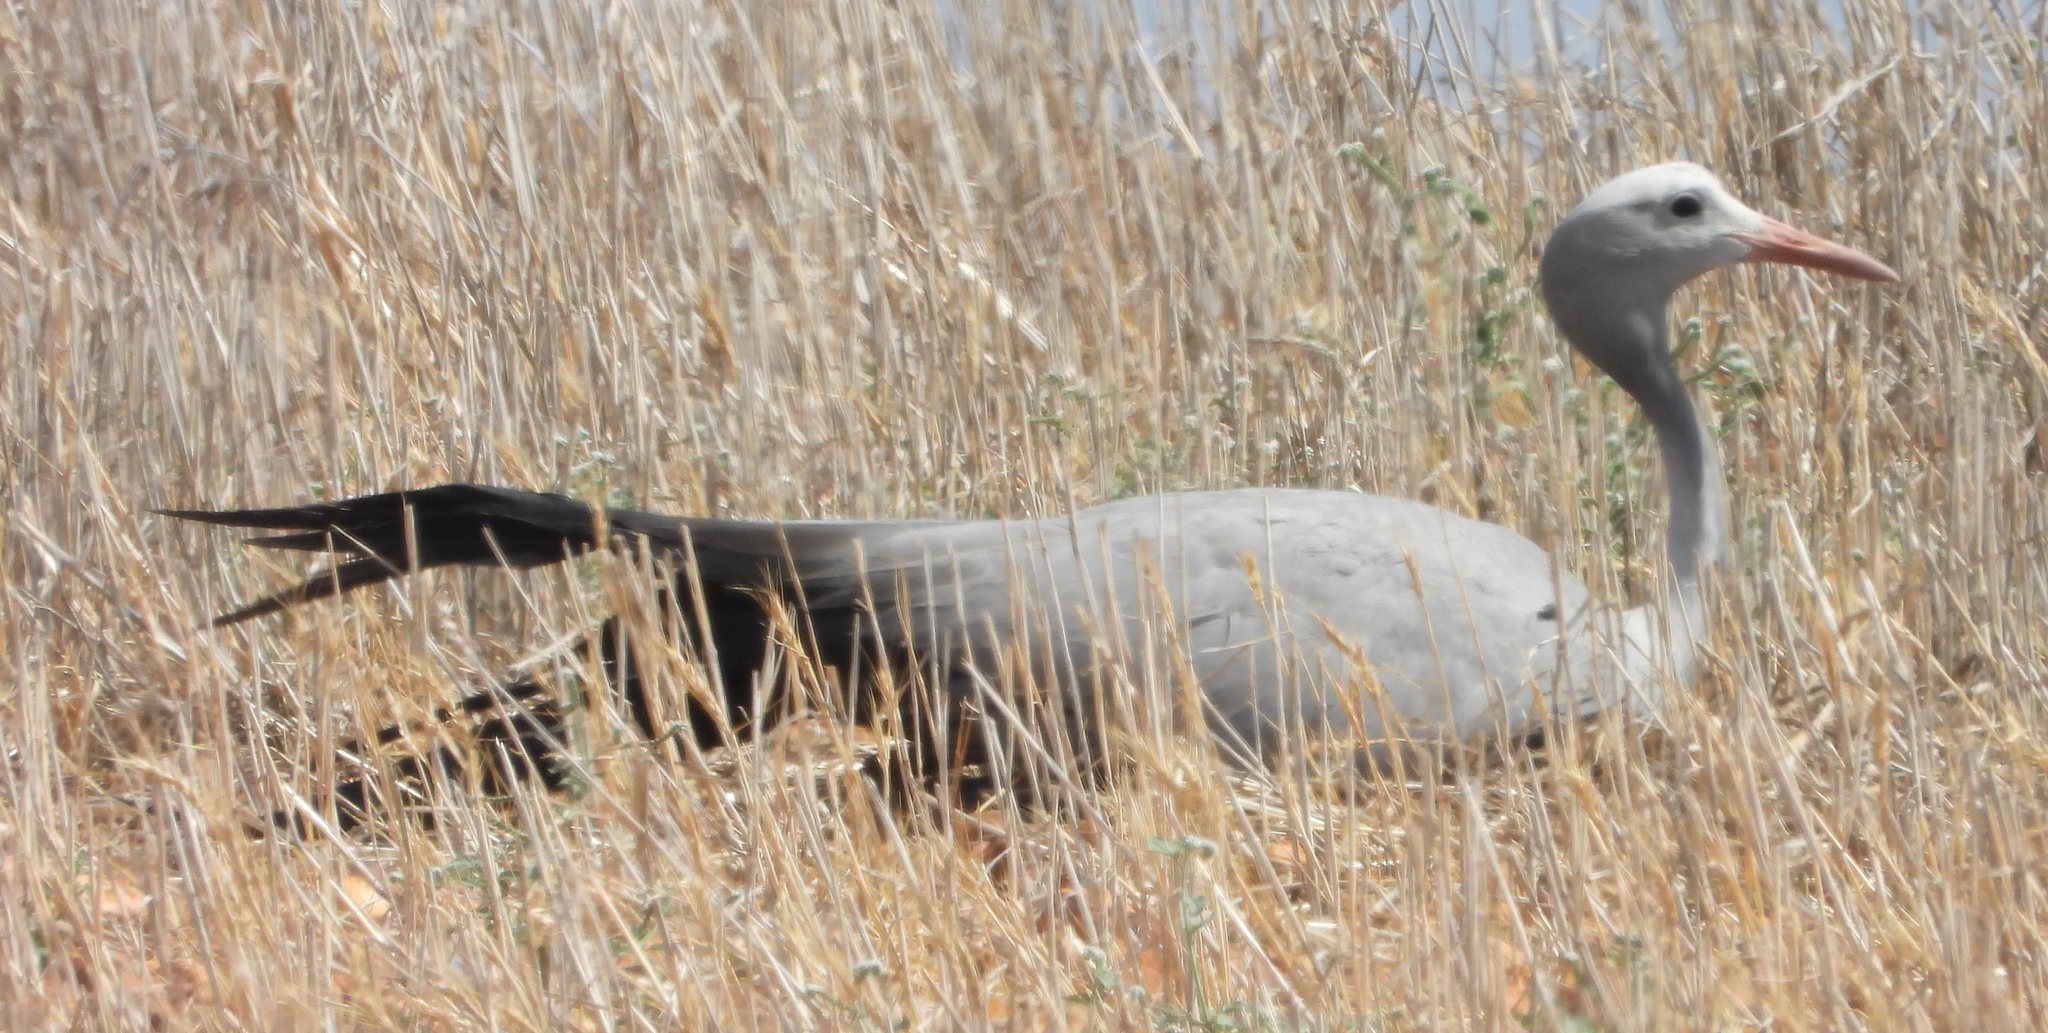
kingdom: Animalia
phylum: Chordata
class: Aves
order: Gruiformes
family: Gruidae
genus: Anthropoides
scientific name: Anthropoides paradiseus
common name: Blue crane
